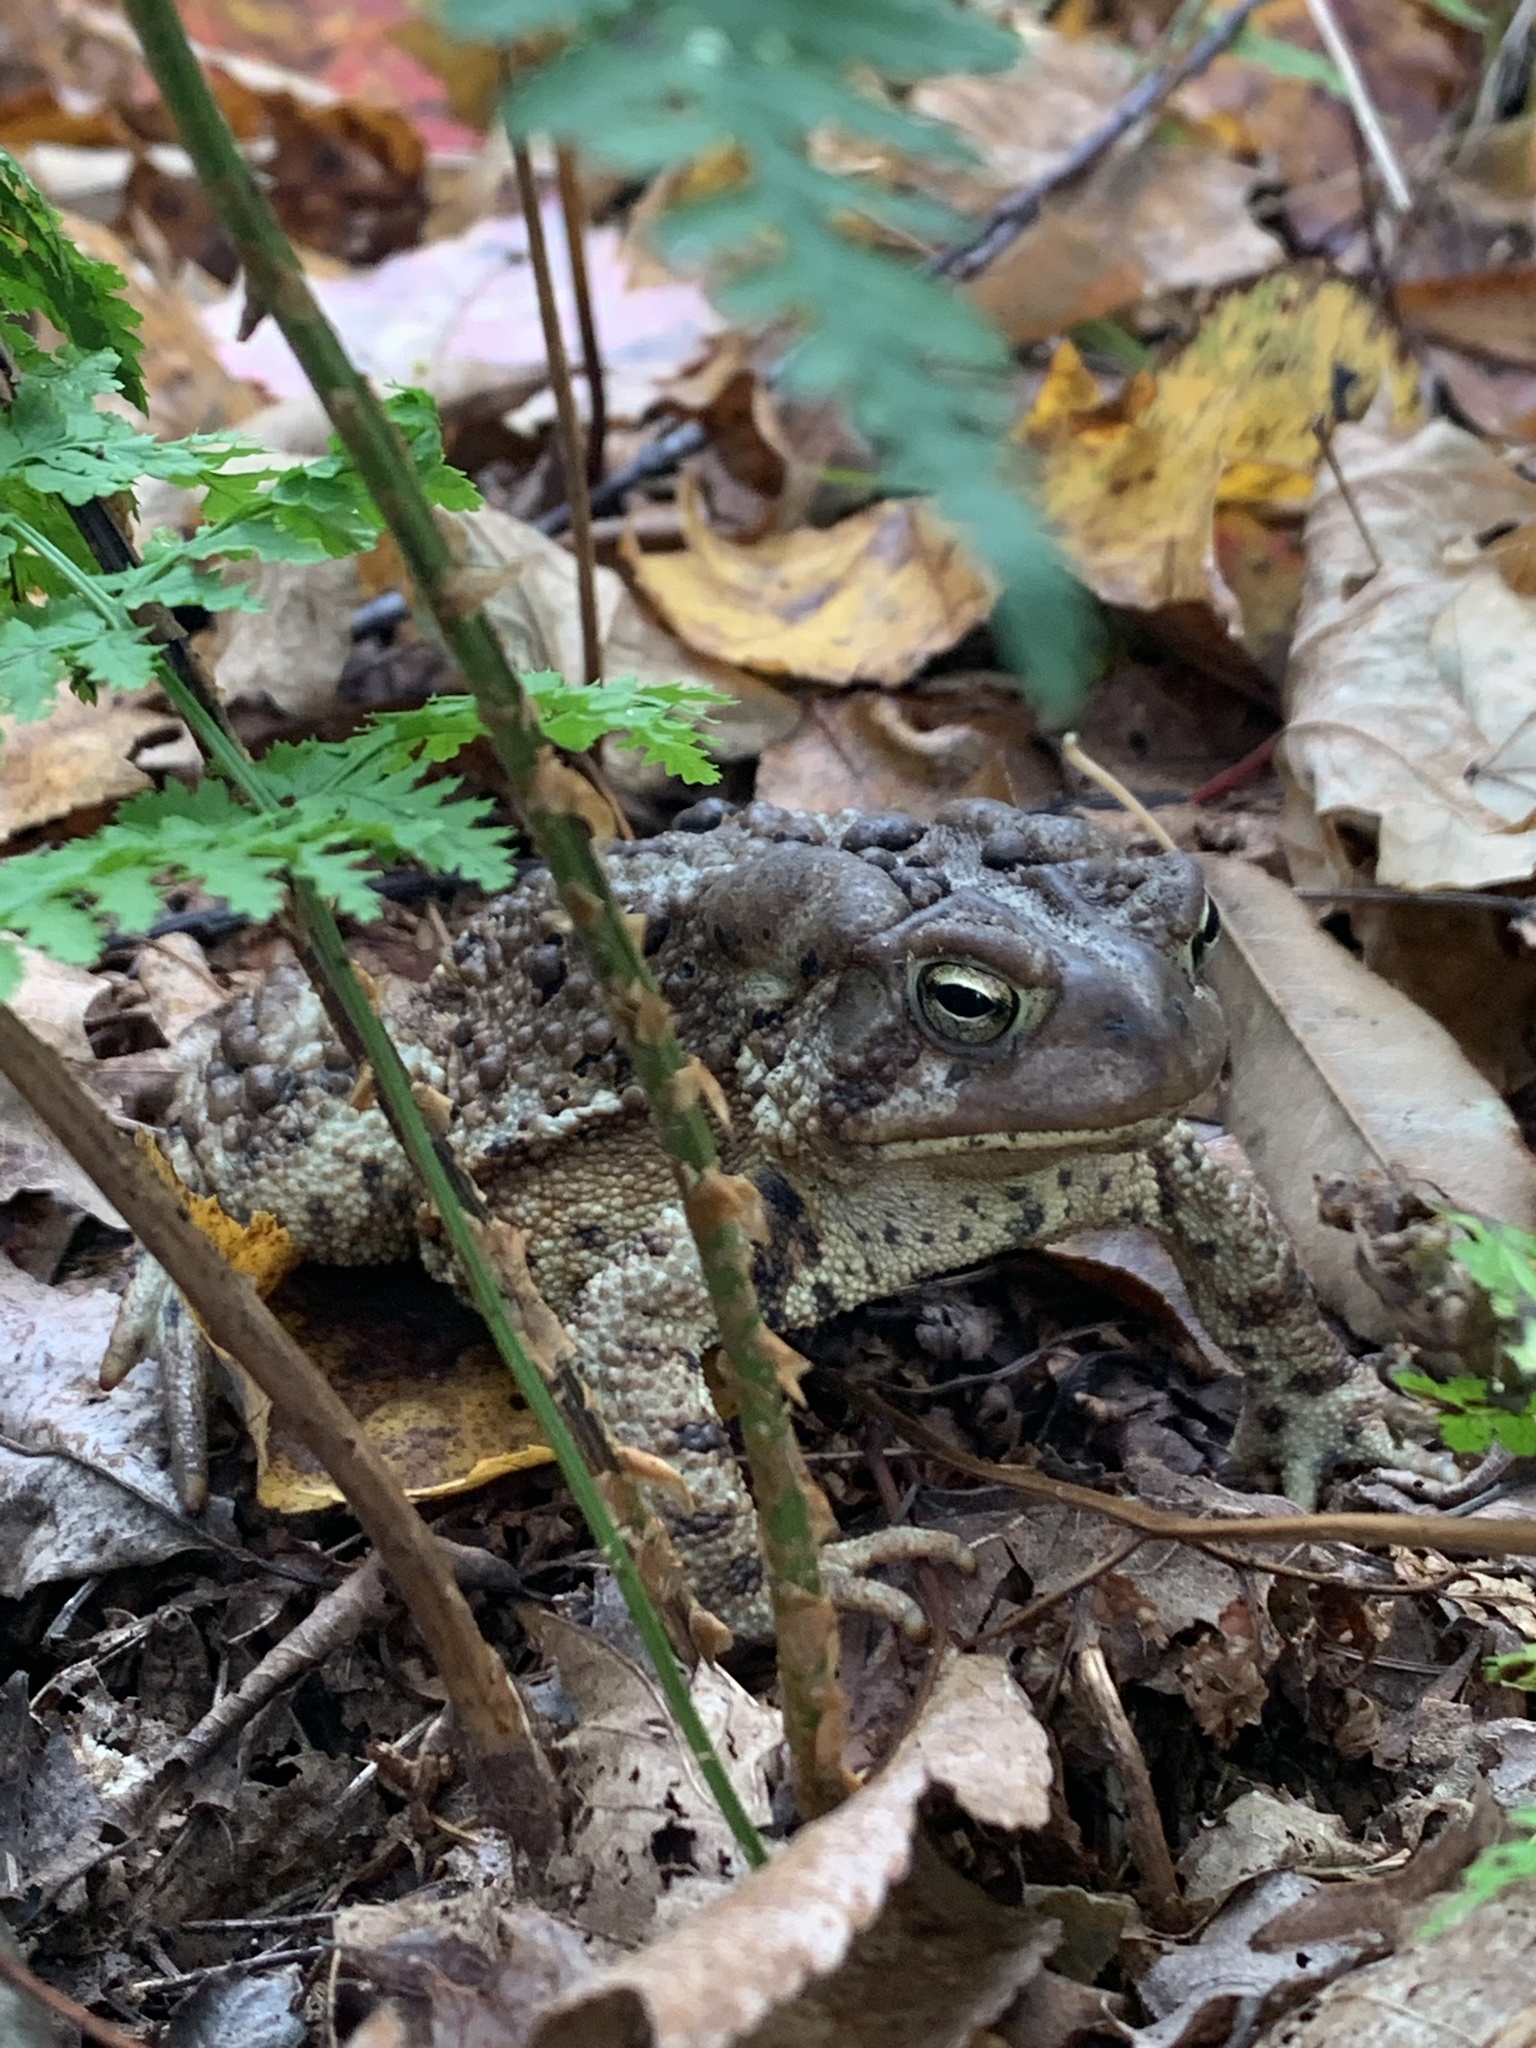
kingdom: Animalia
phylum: Chordata
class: Amphibia
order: Anura
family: Bufonidae
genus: Anaxyrus
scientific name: Anaxyrus americanus
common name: American toad
